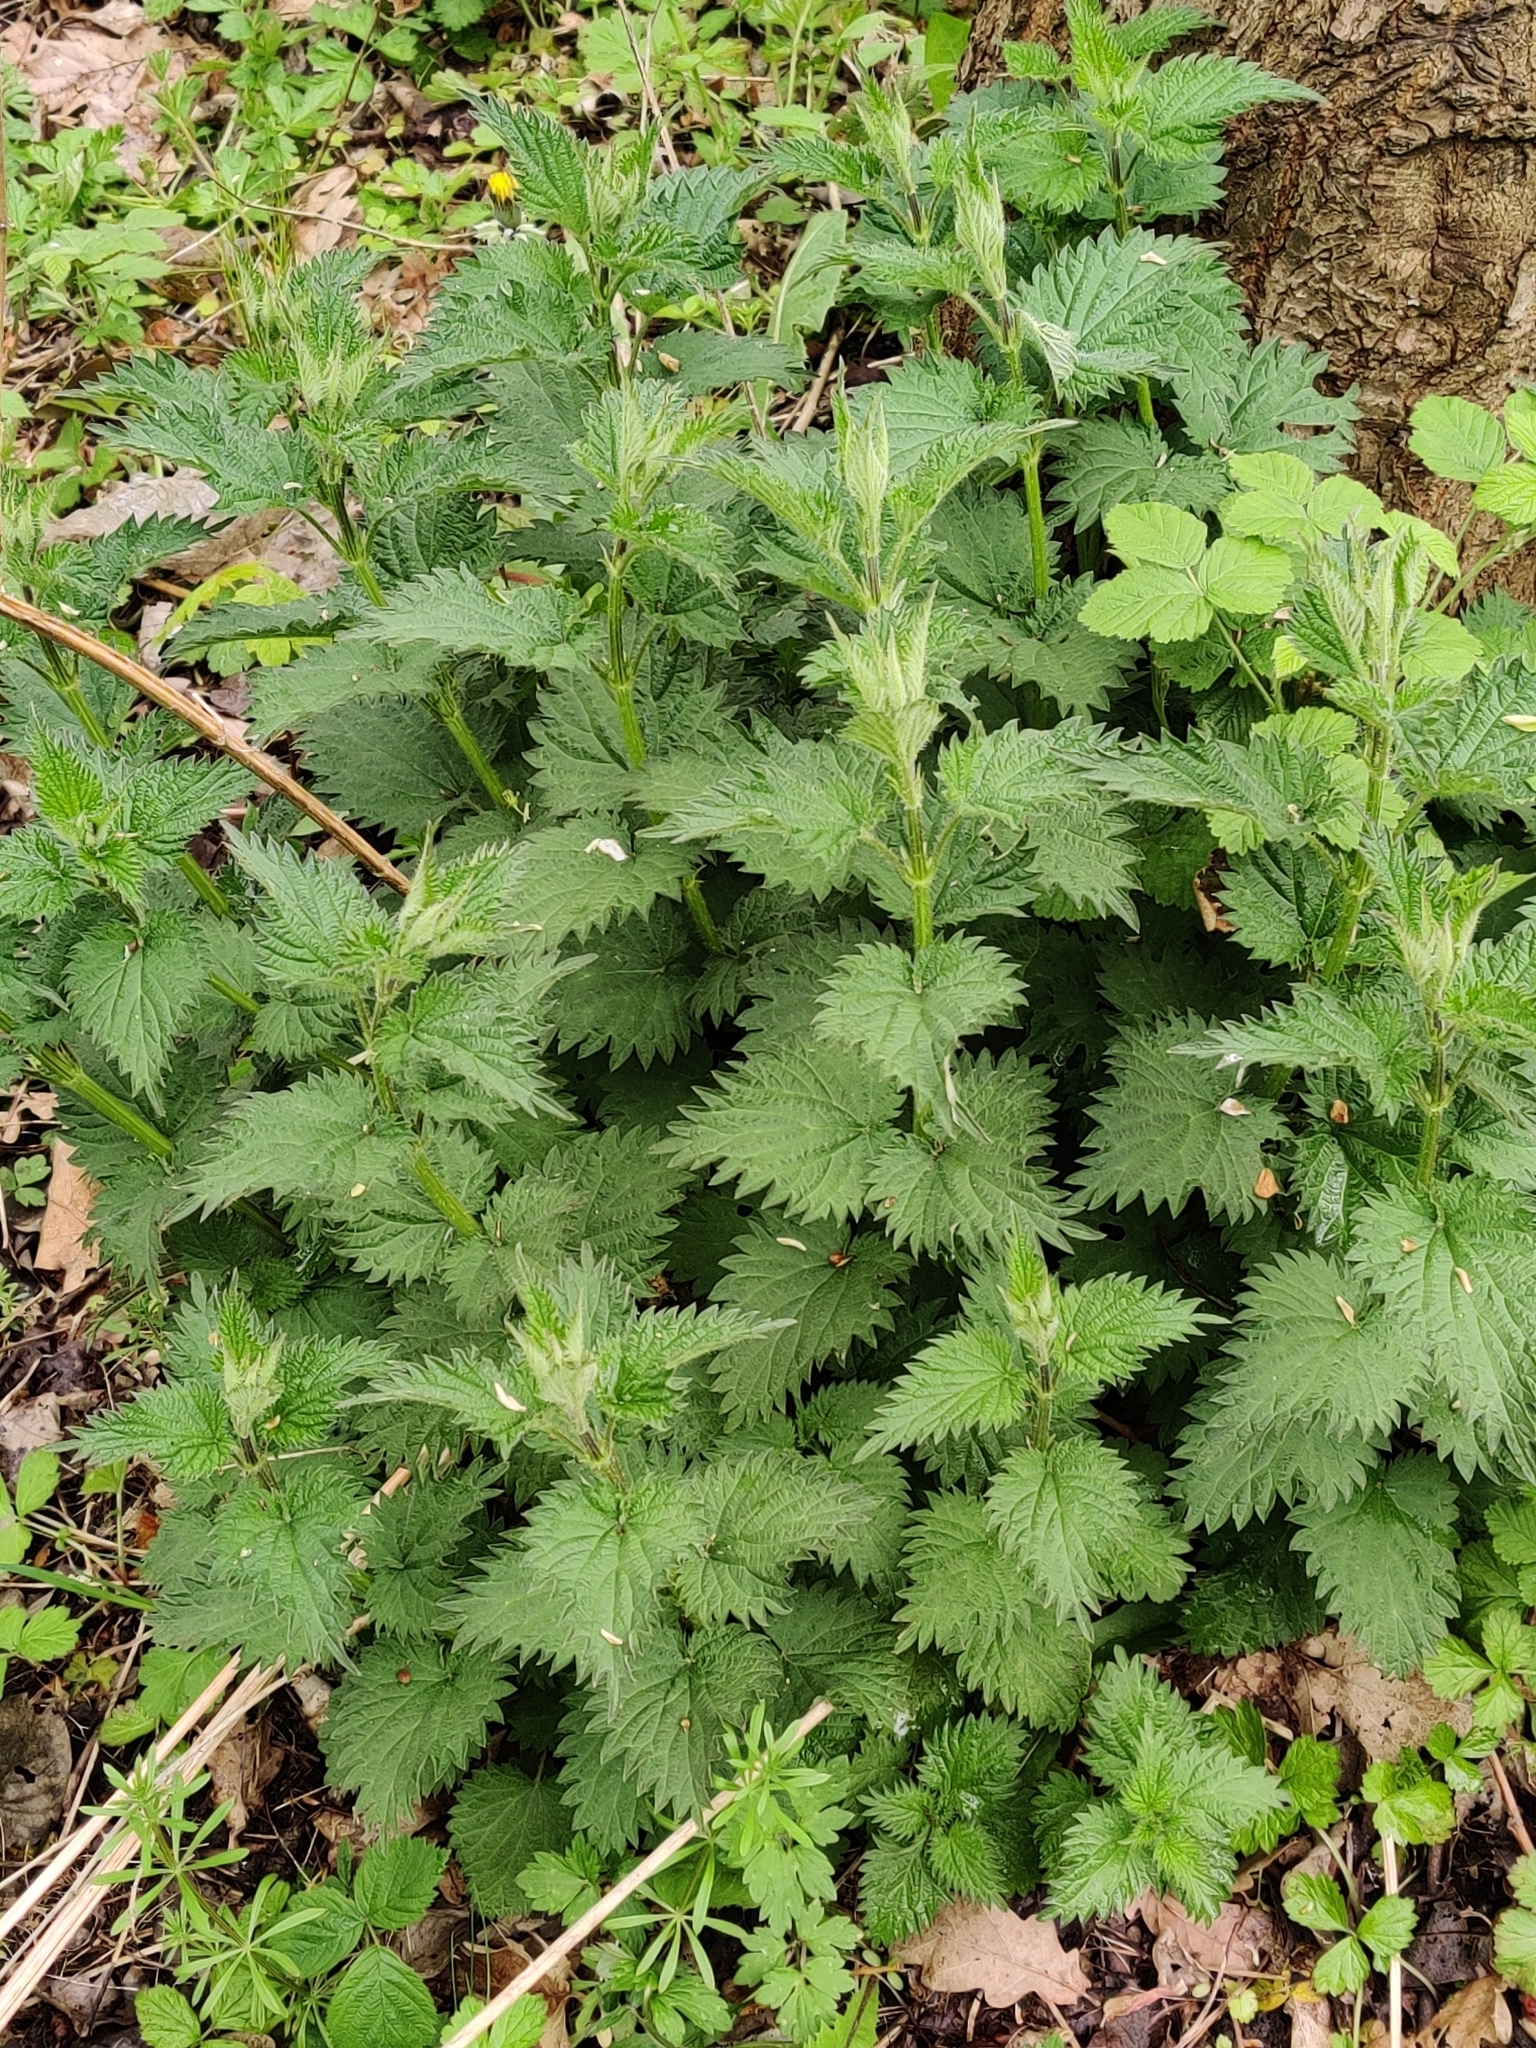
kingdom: Plantae
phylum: Tracheophyta
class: Magnoliopsida
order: Rosales
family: Urticaceae
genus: Urtica
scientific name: Urtica dioica
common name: Common nettle
